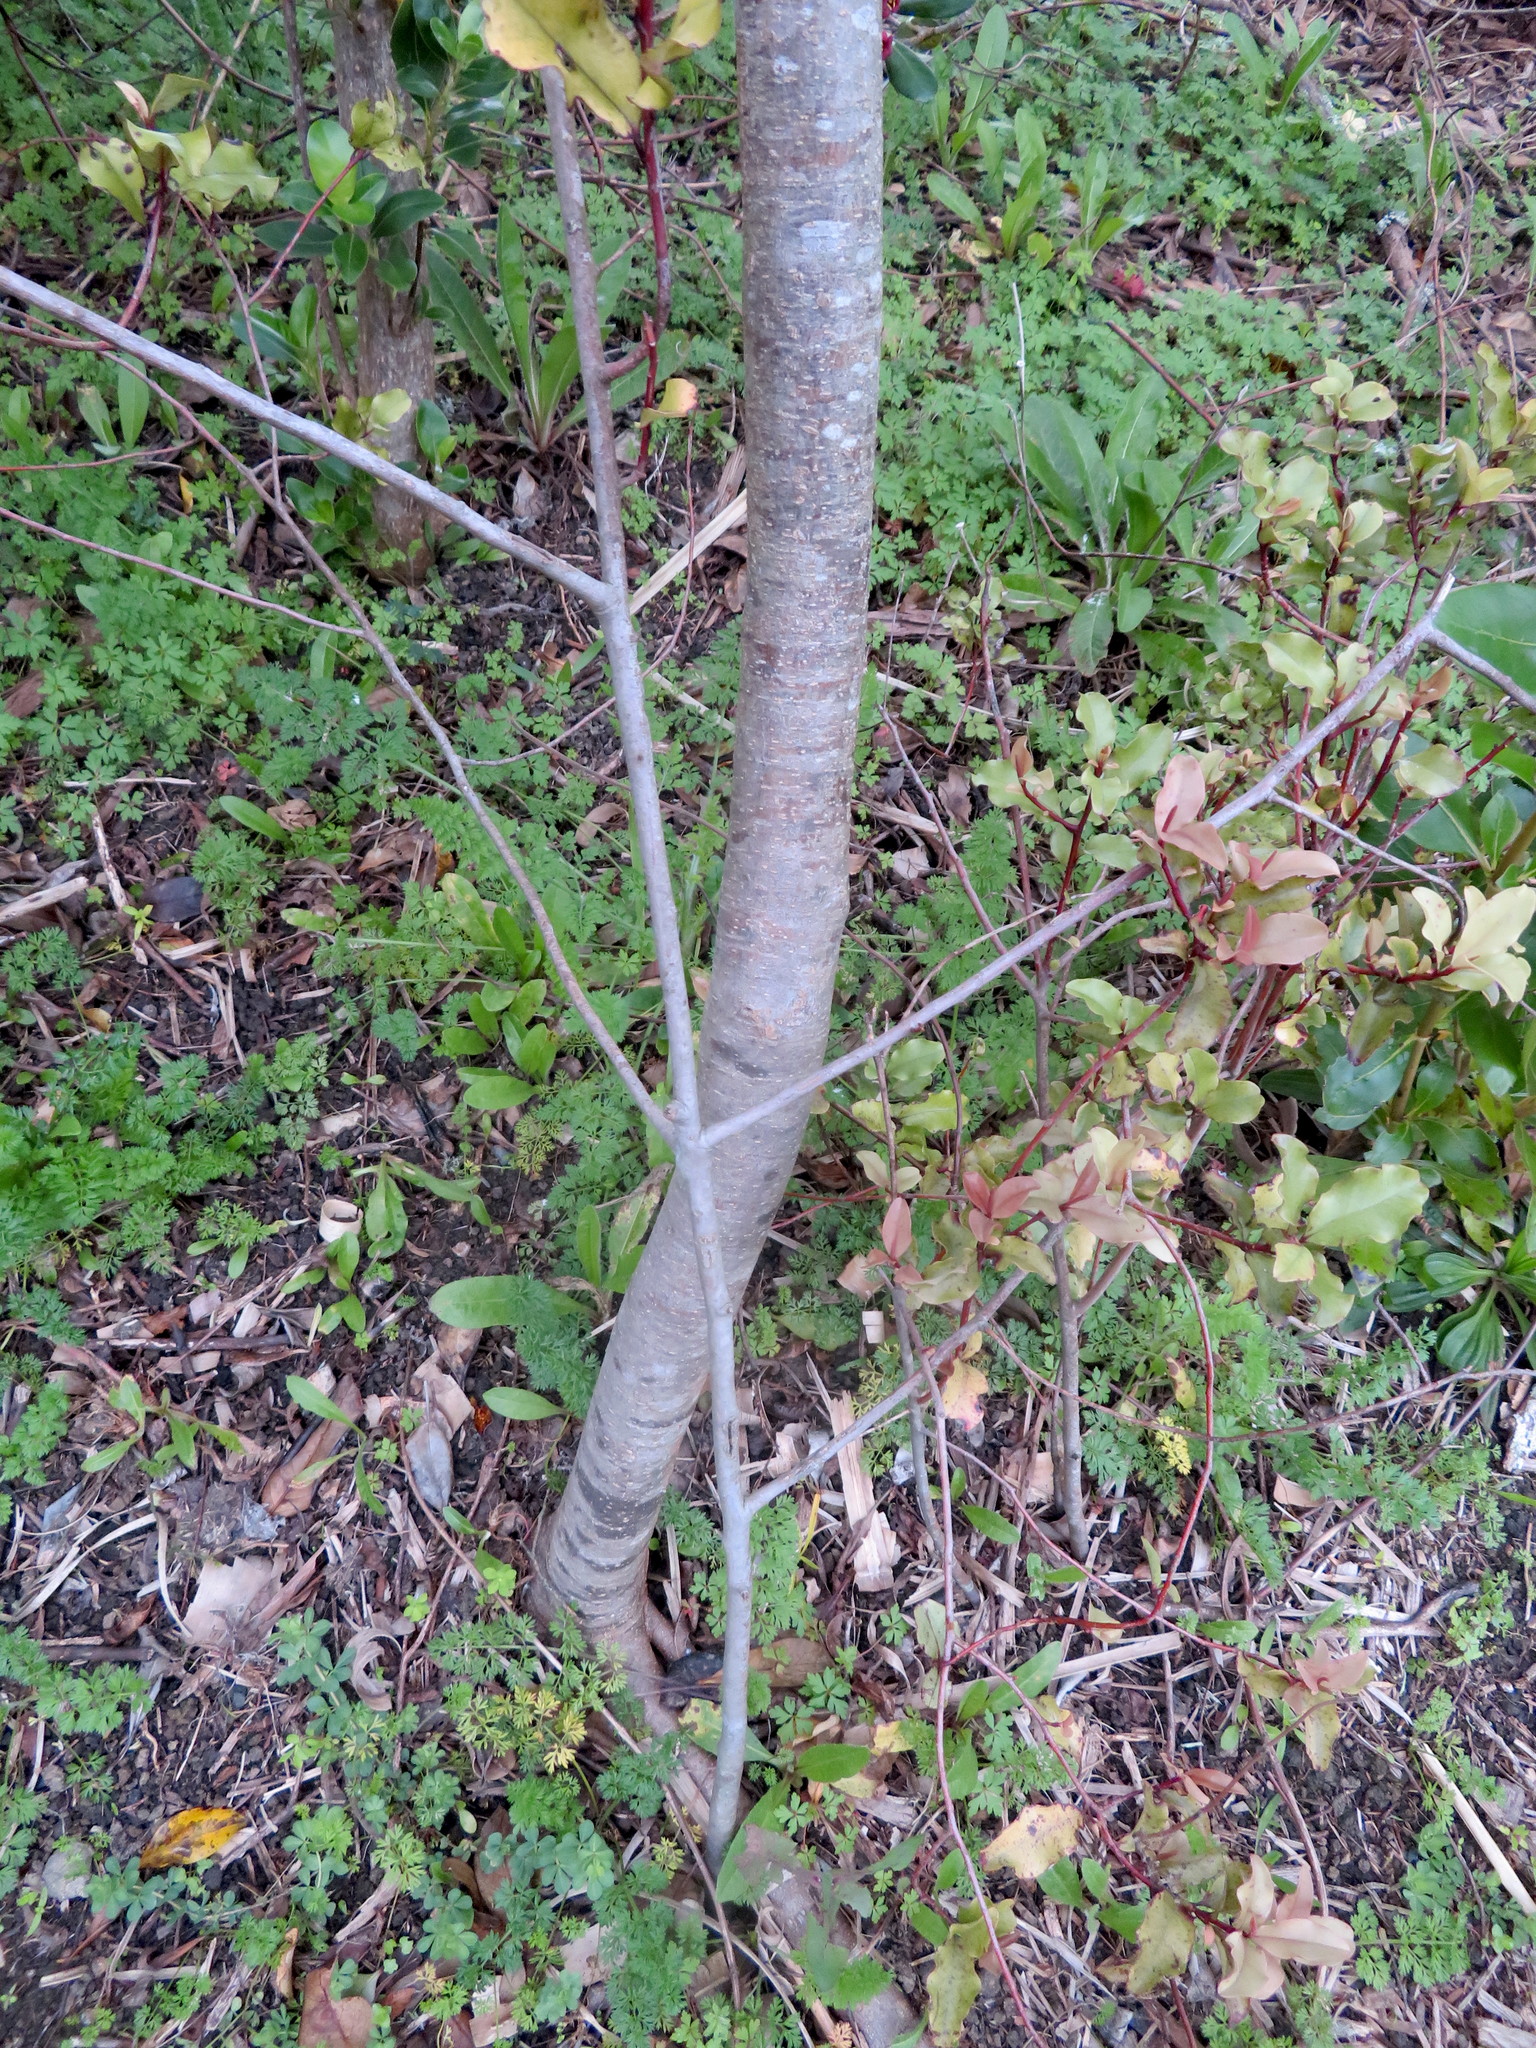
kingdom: Plantae
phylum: Tracheophyta
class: Magnoliopsida
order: Ericales
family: Primulaceae
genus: Myrsine
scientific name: Myrsine australis
